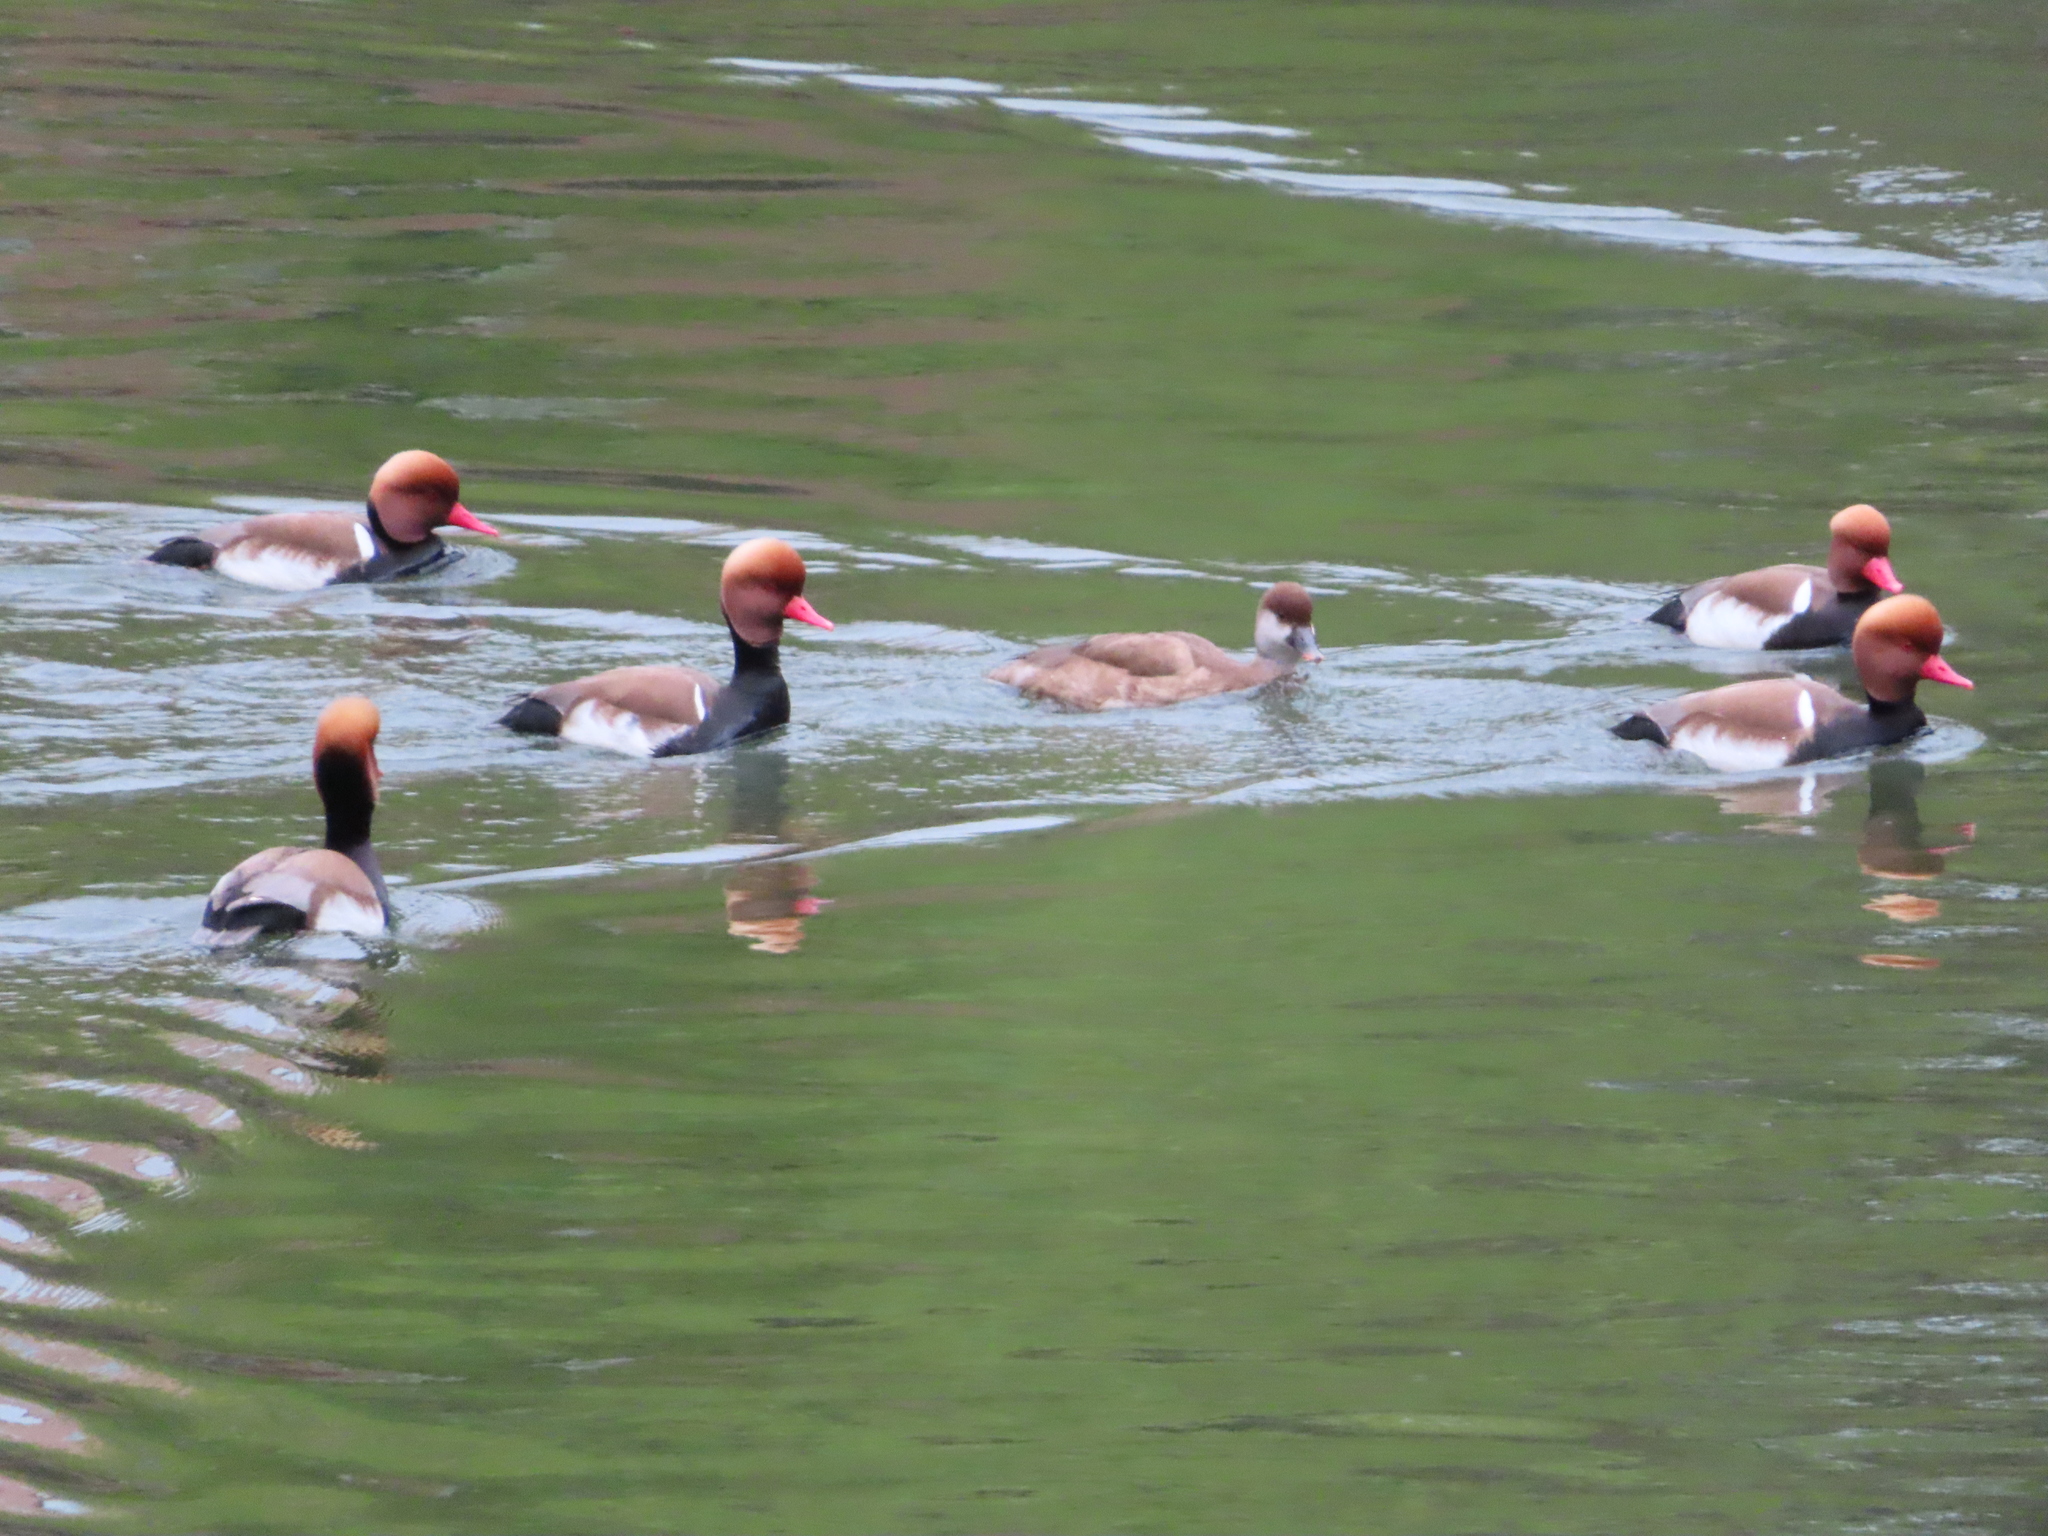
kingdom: Animalia
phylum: Chordata
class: Aves
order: Anseriformes
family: Anatidae
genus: Netta
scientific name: Netta rufina
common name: Red-crested pochard
